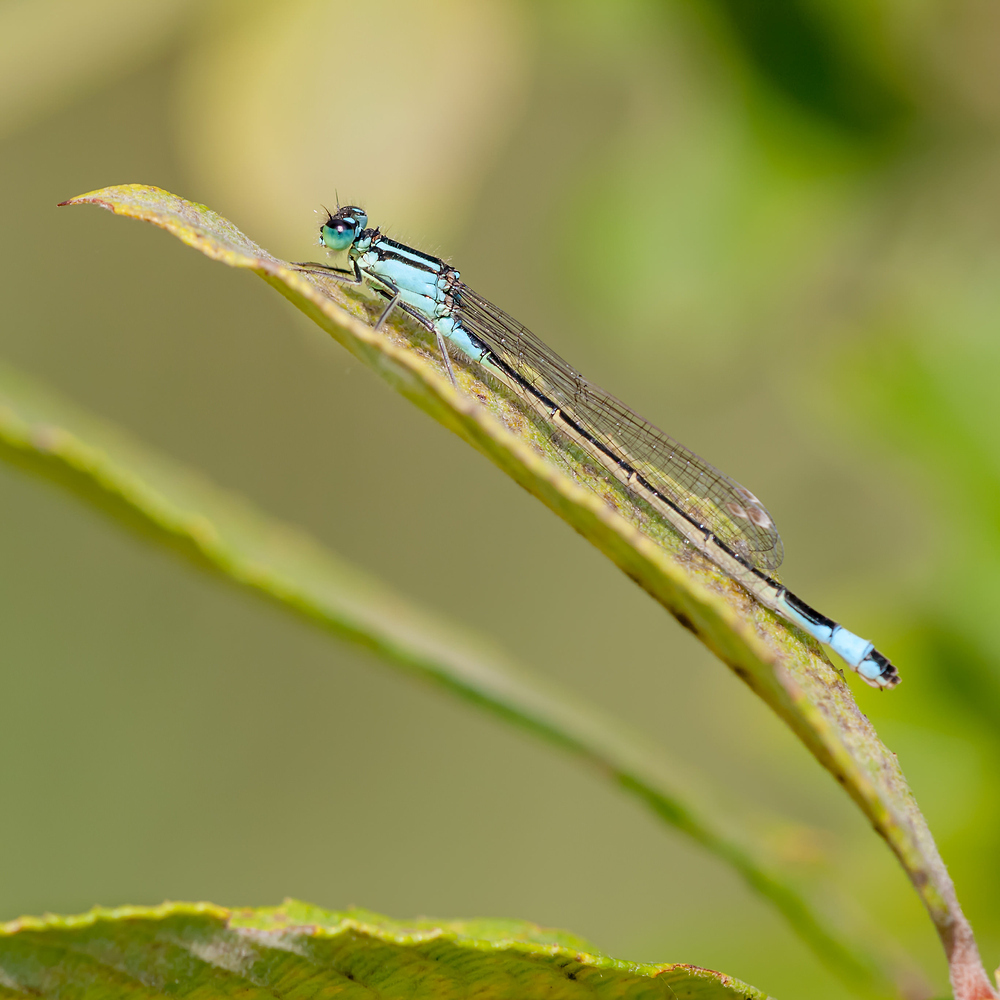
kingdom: Animalia
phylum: Arthropoda
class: Insecta
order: Odonata
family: Coenagrionidae
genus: Ischnura
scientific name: Ischnura elegans
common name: Blue-tailed damselfly
